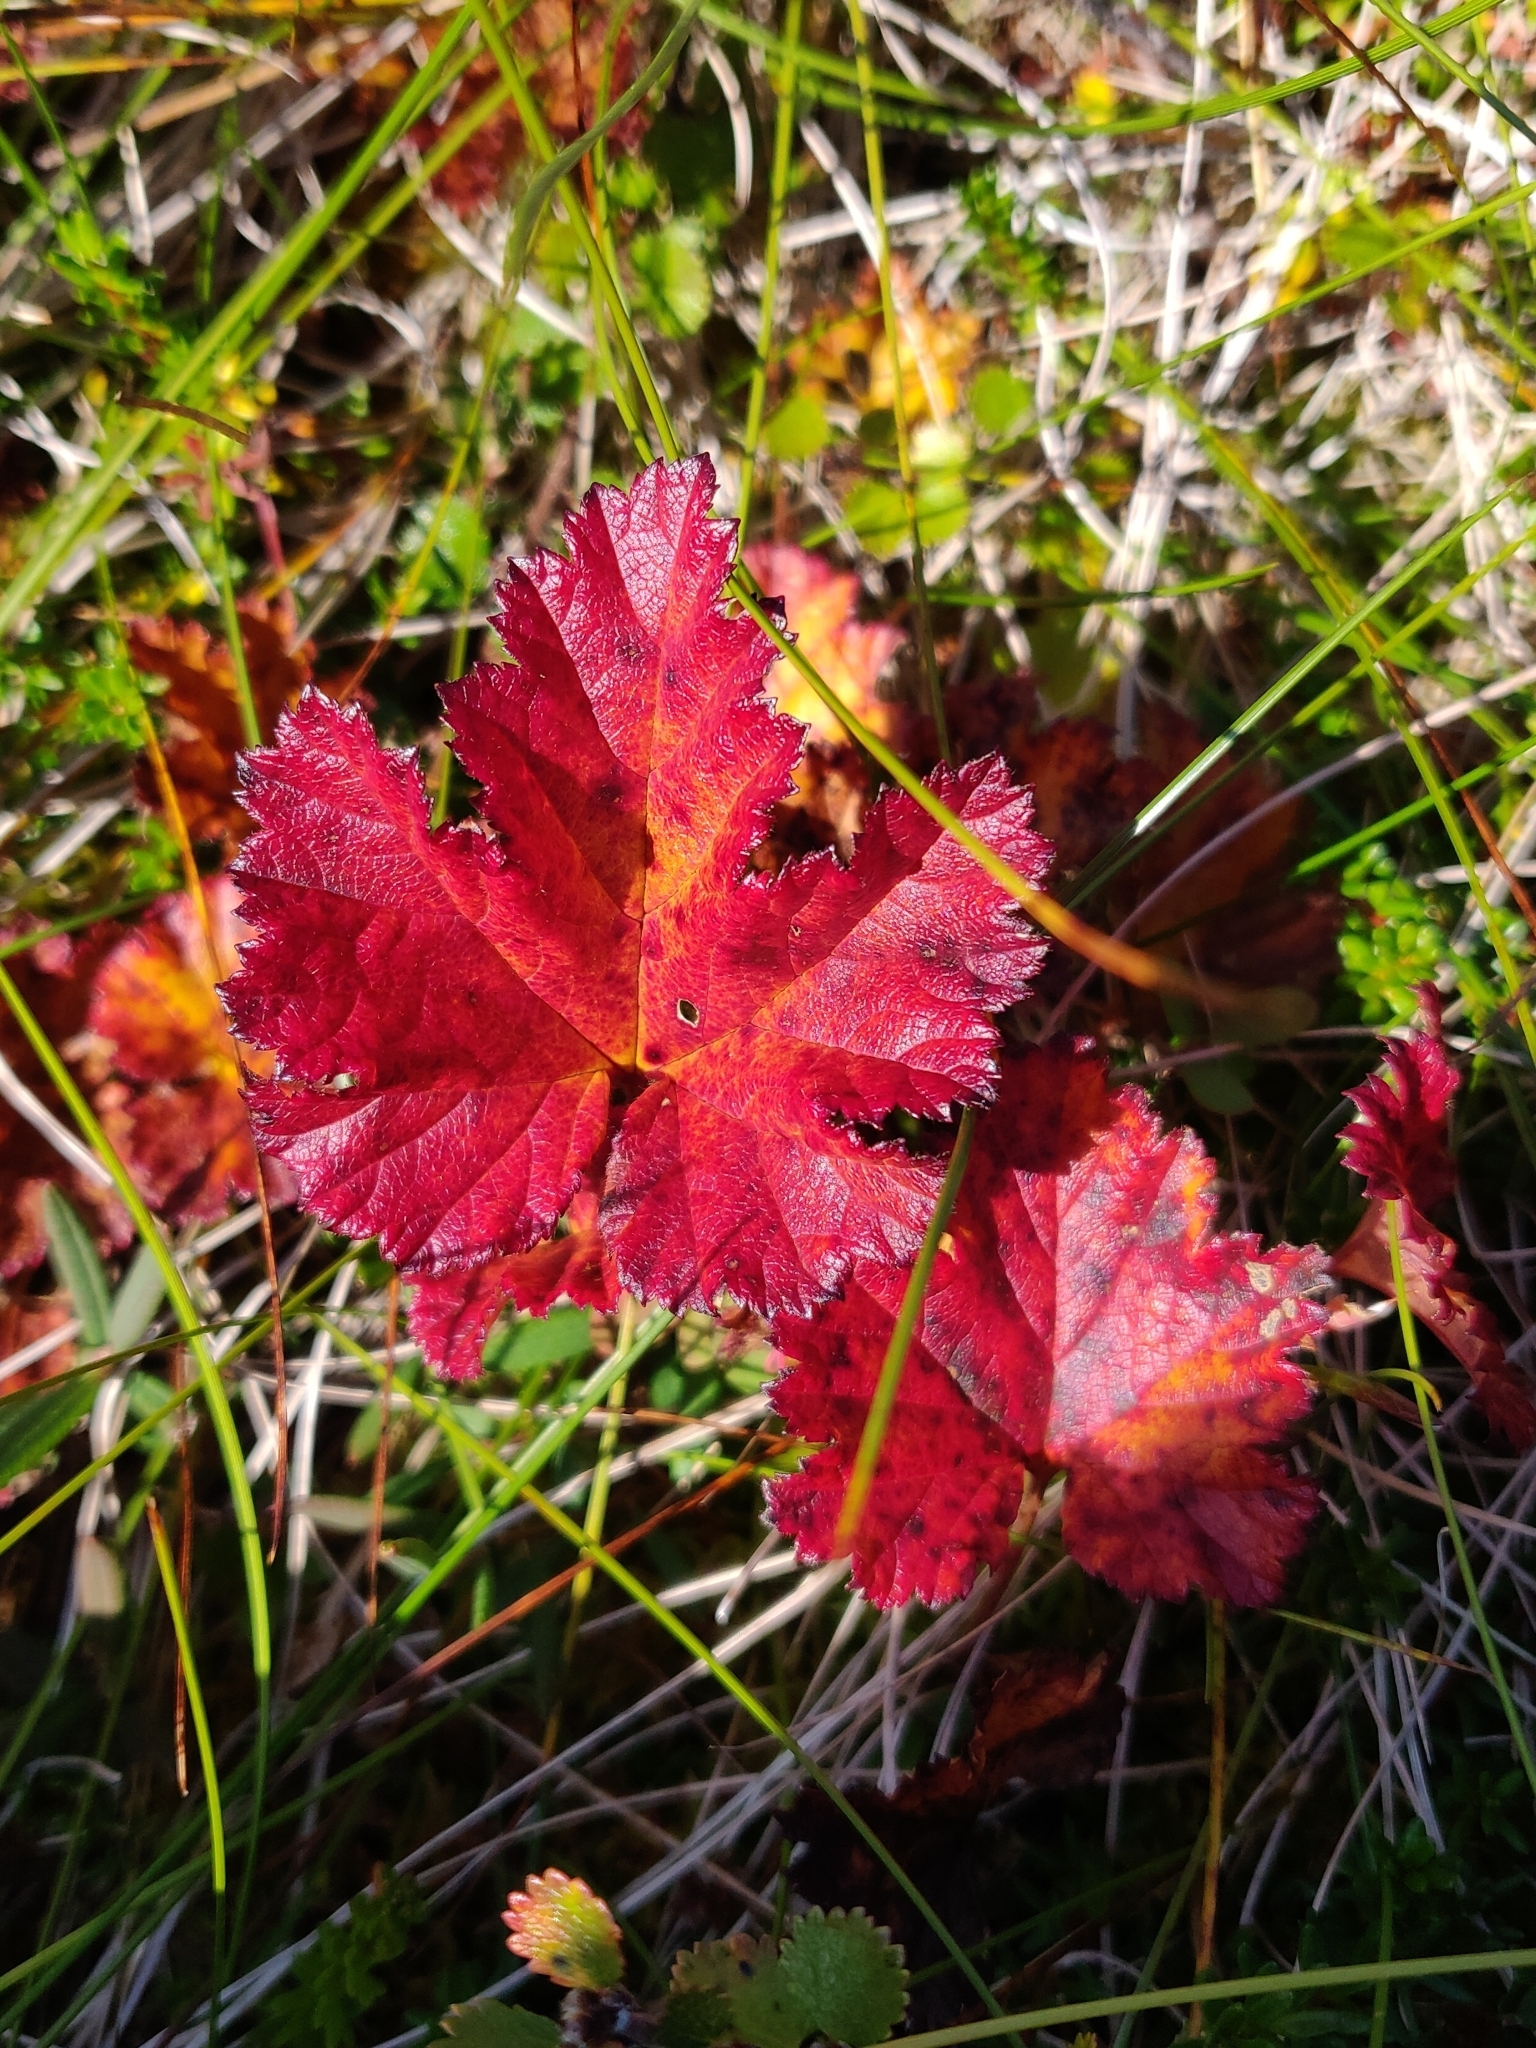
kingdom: Plantae
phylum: Tracheophyta
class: Magnoliopsida
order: Rosales
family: Rosaceae
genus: Rubus
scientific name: Rubus chamaemorus
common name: Cloudberry
